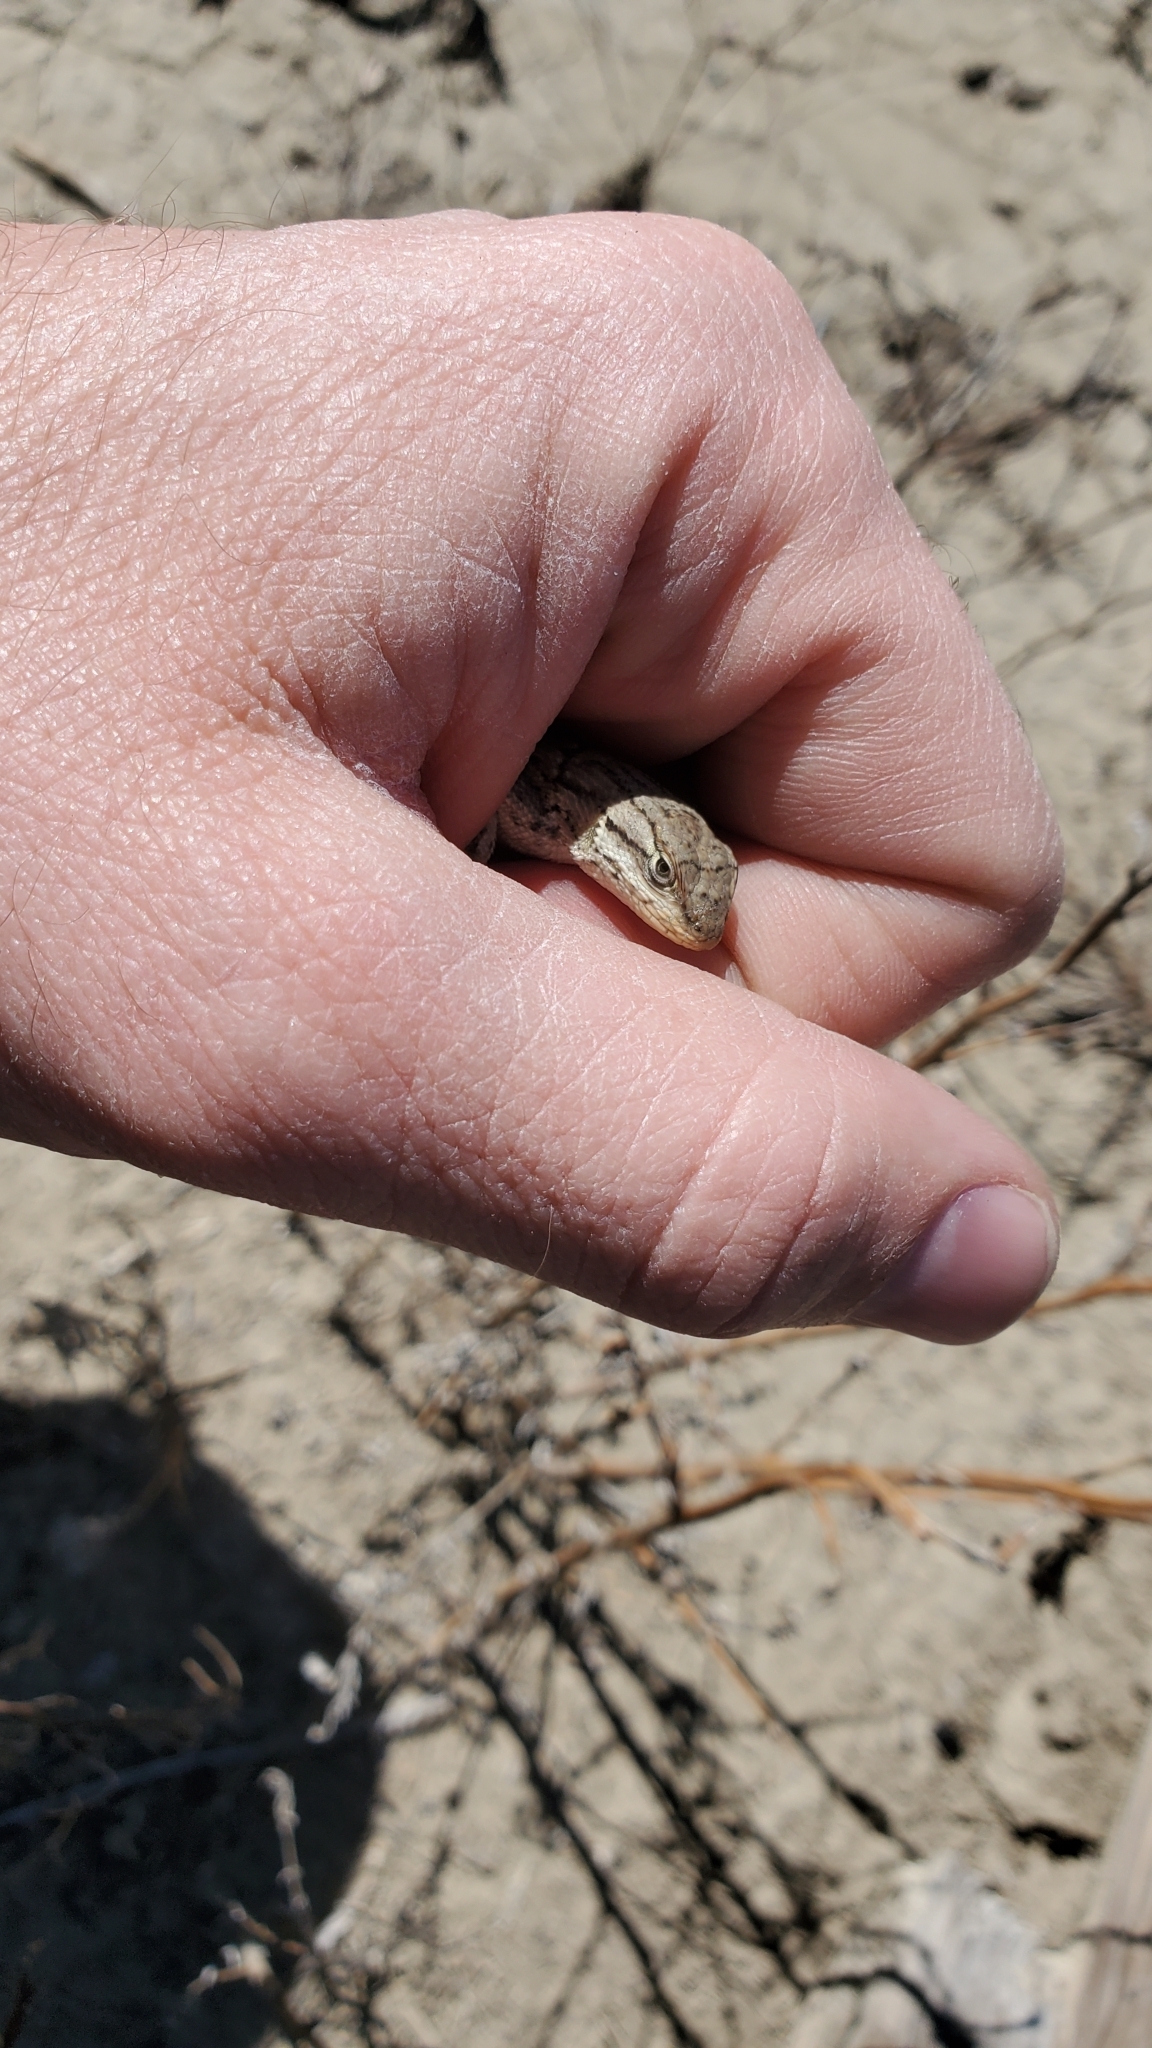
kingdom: Animalia
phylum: Chordata
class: Squamata
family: Phrynosomatidae
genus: Sceloporus
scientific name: Sceloporus consobrinus
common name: Southern prairie lizard
